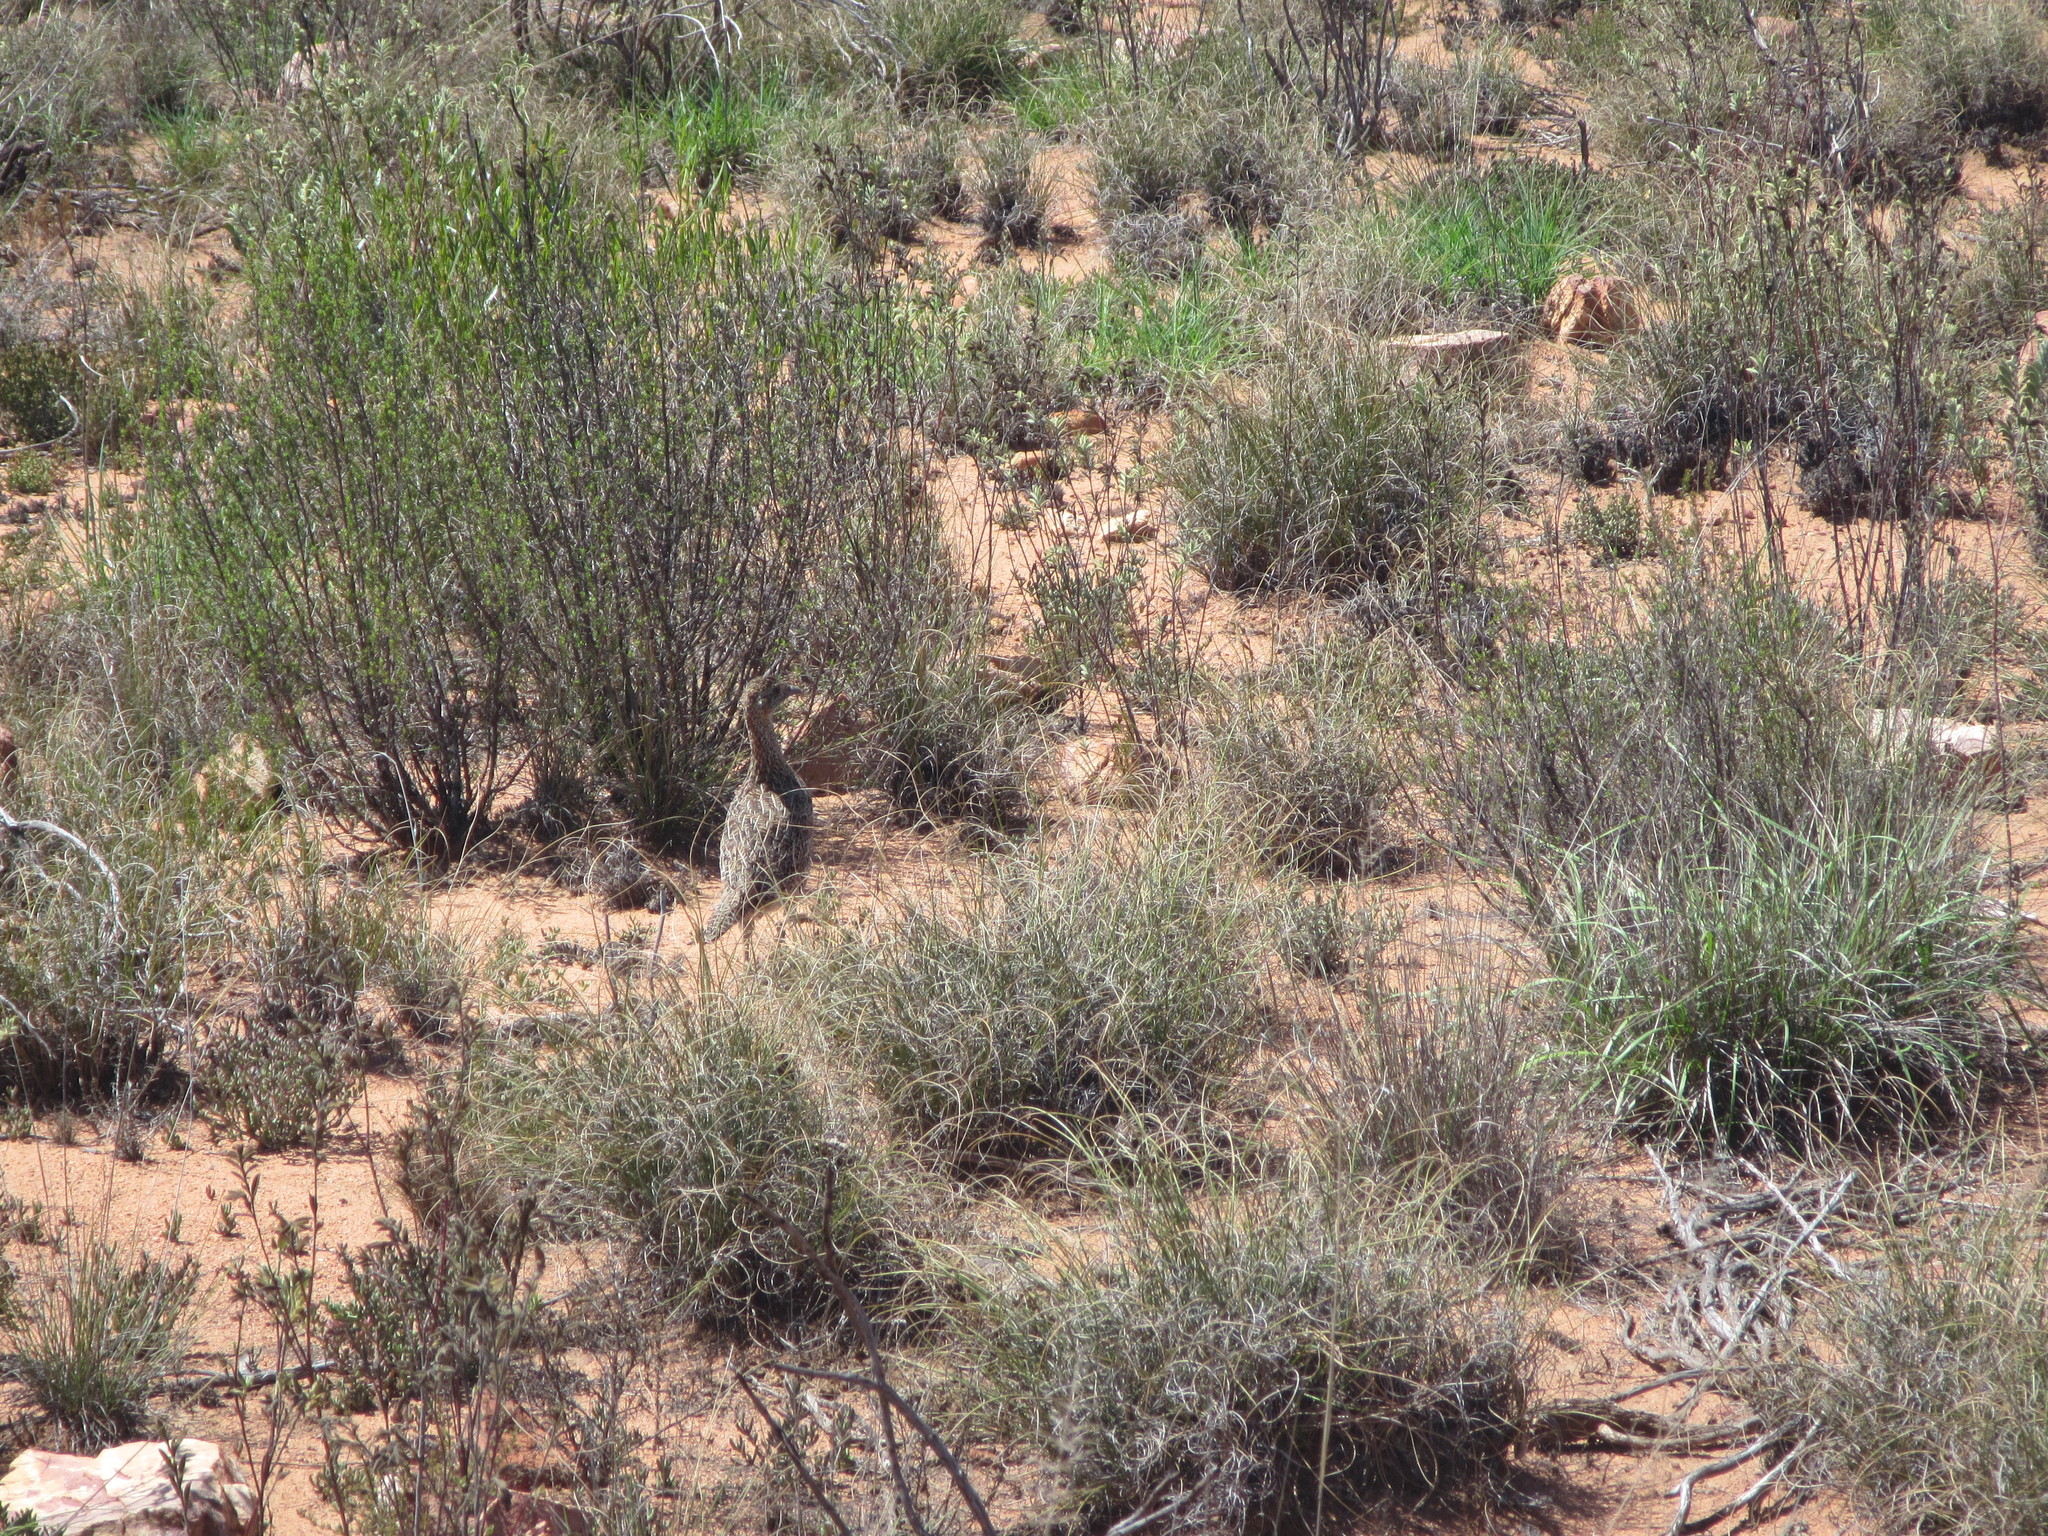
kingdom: Animalia
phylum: Chordata
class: Aves
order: Galliformes
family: Phasianidae
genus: Scleroptila
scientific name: Scleroptila afra
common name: Grey-winged francolin
